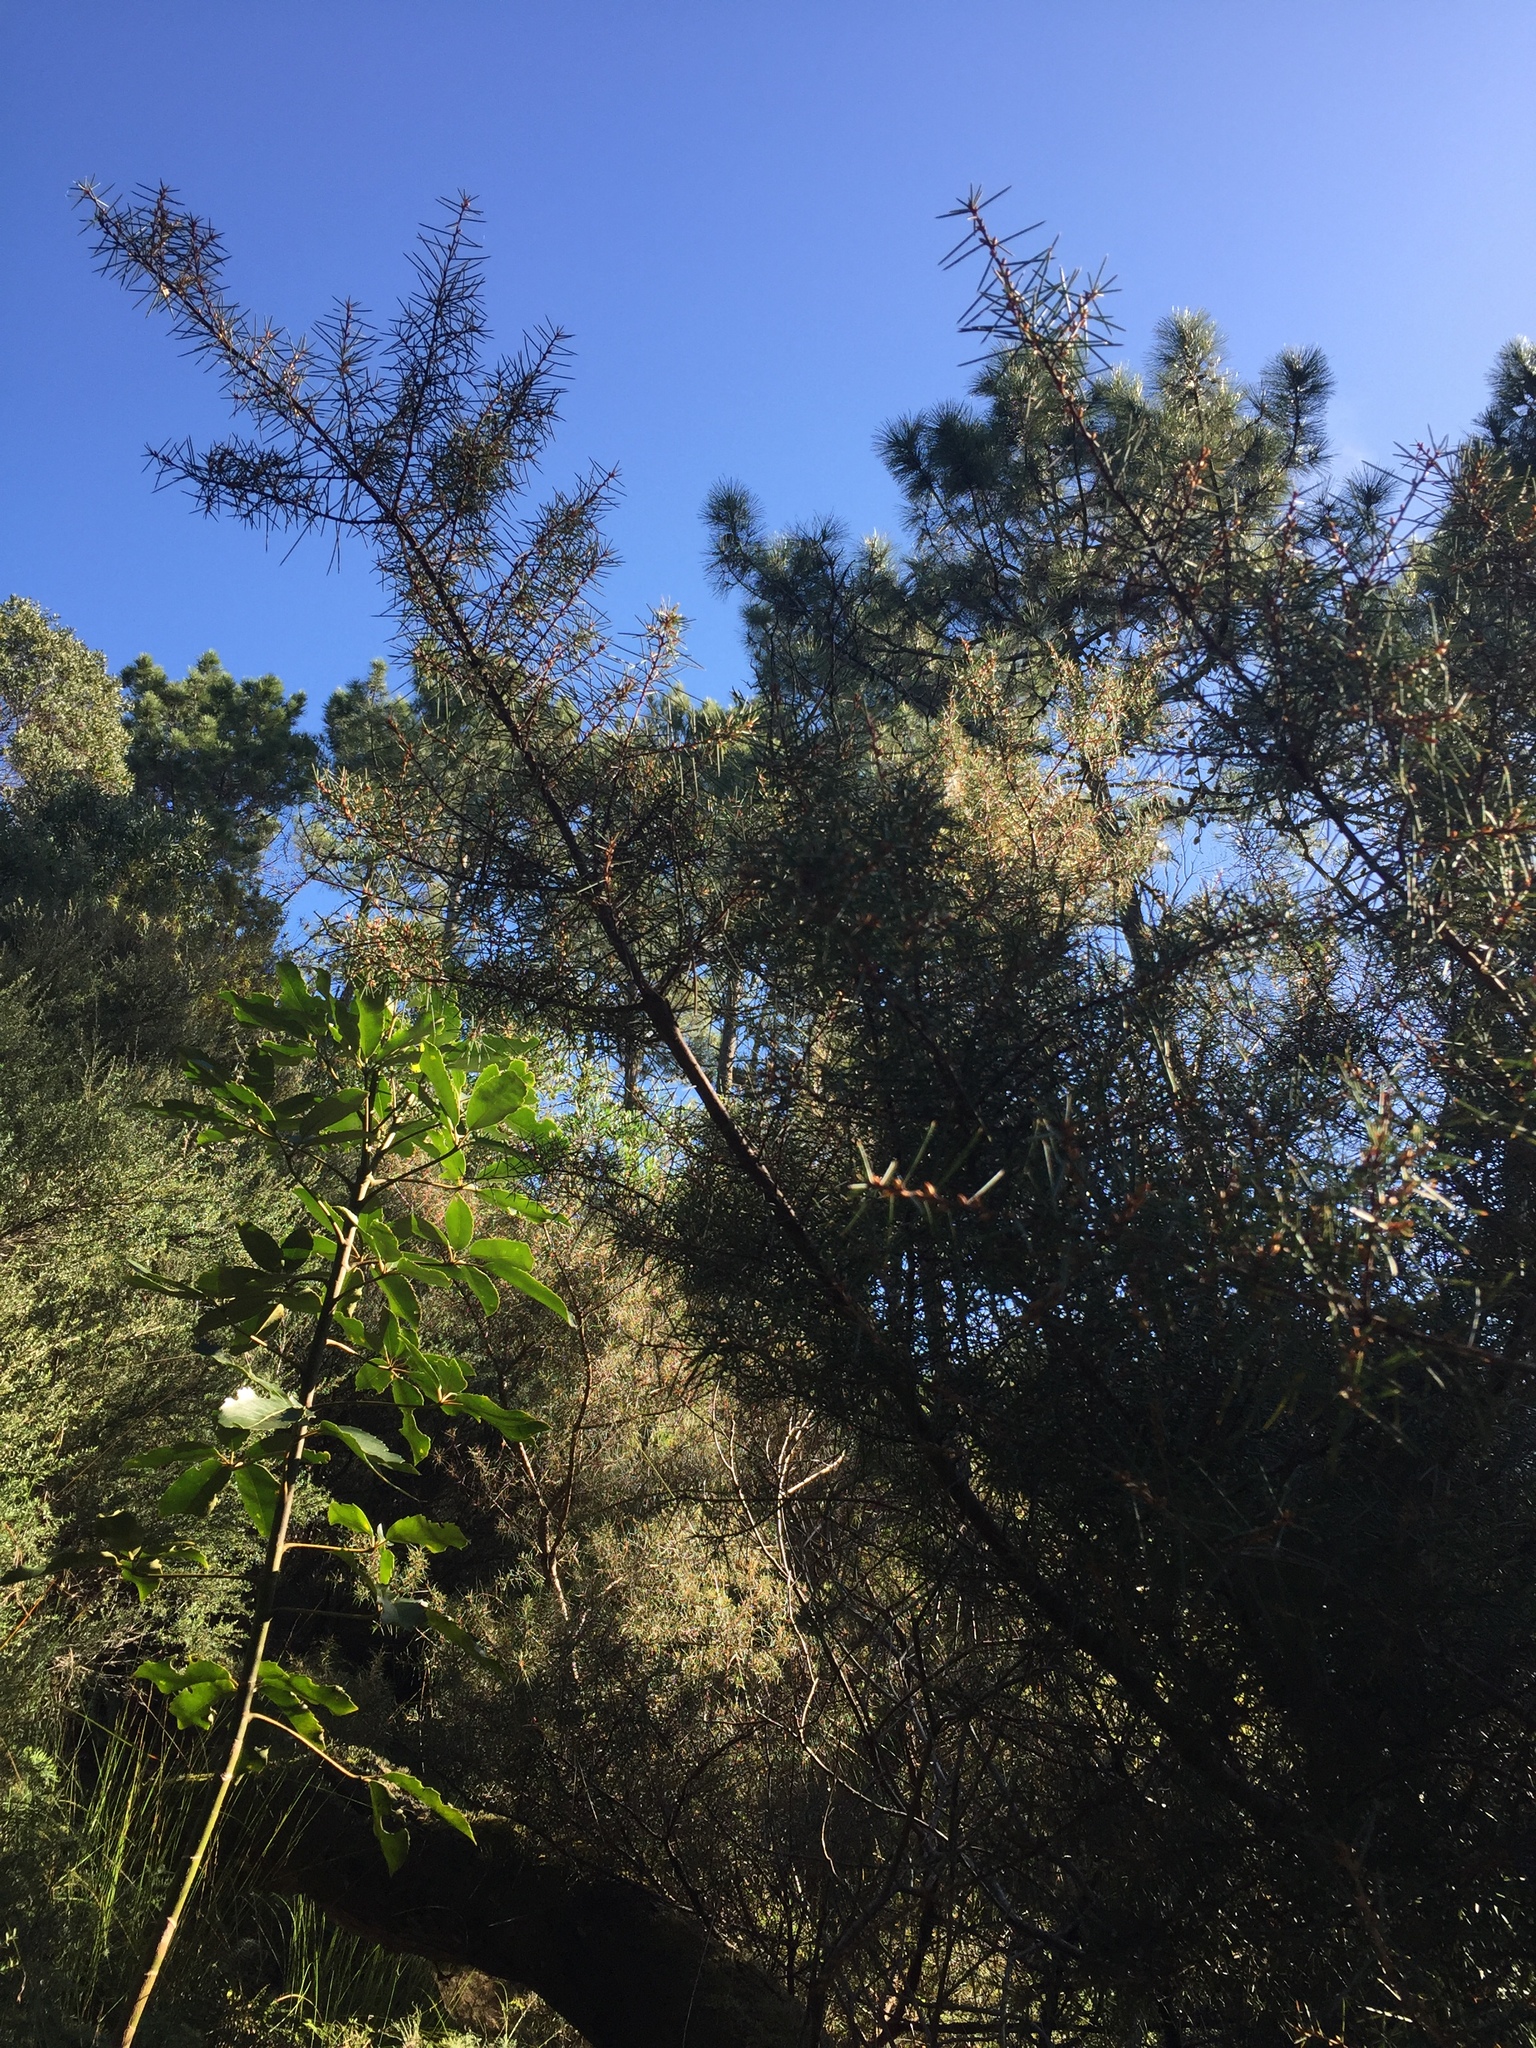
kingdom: Plantae
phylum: Tracheophyta
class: Magnoliopsida
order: Proteales
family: Proteaceae
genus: Hakea
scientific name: Hakea sericea
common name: Needle bush
